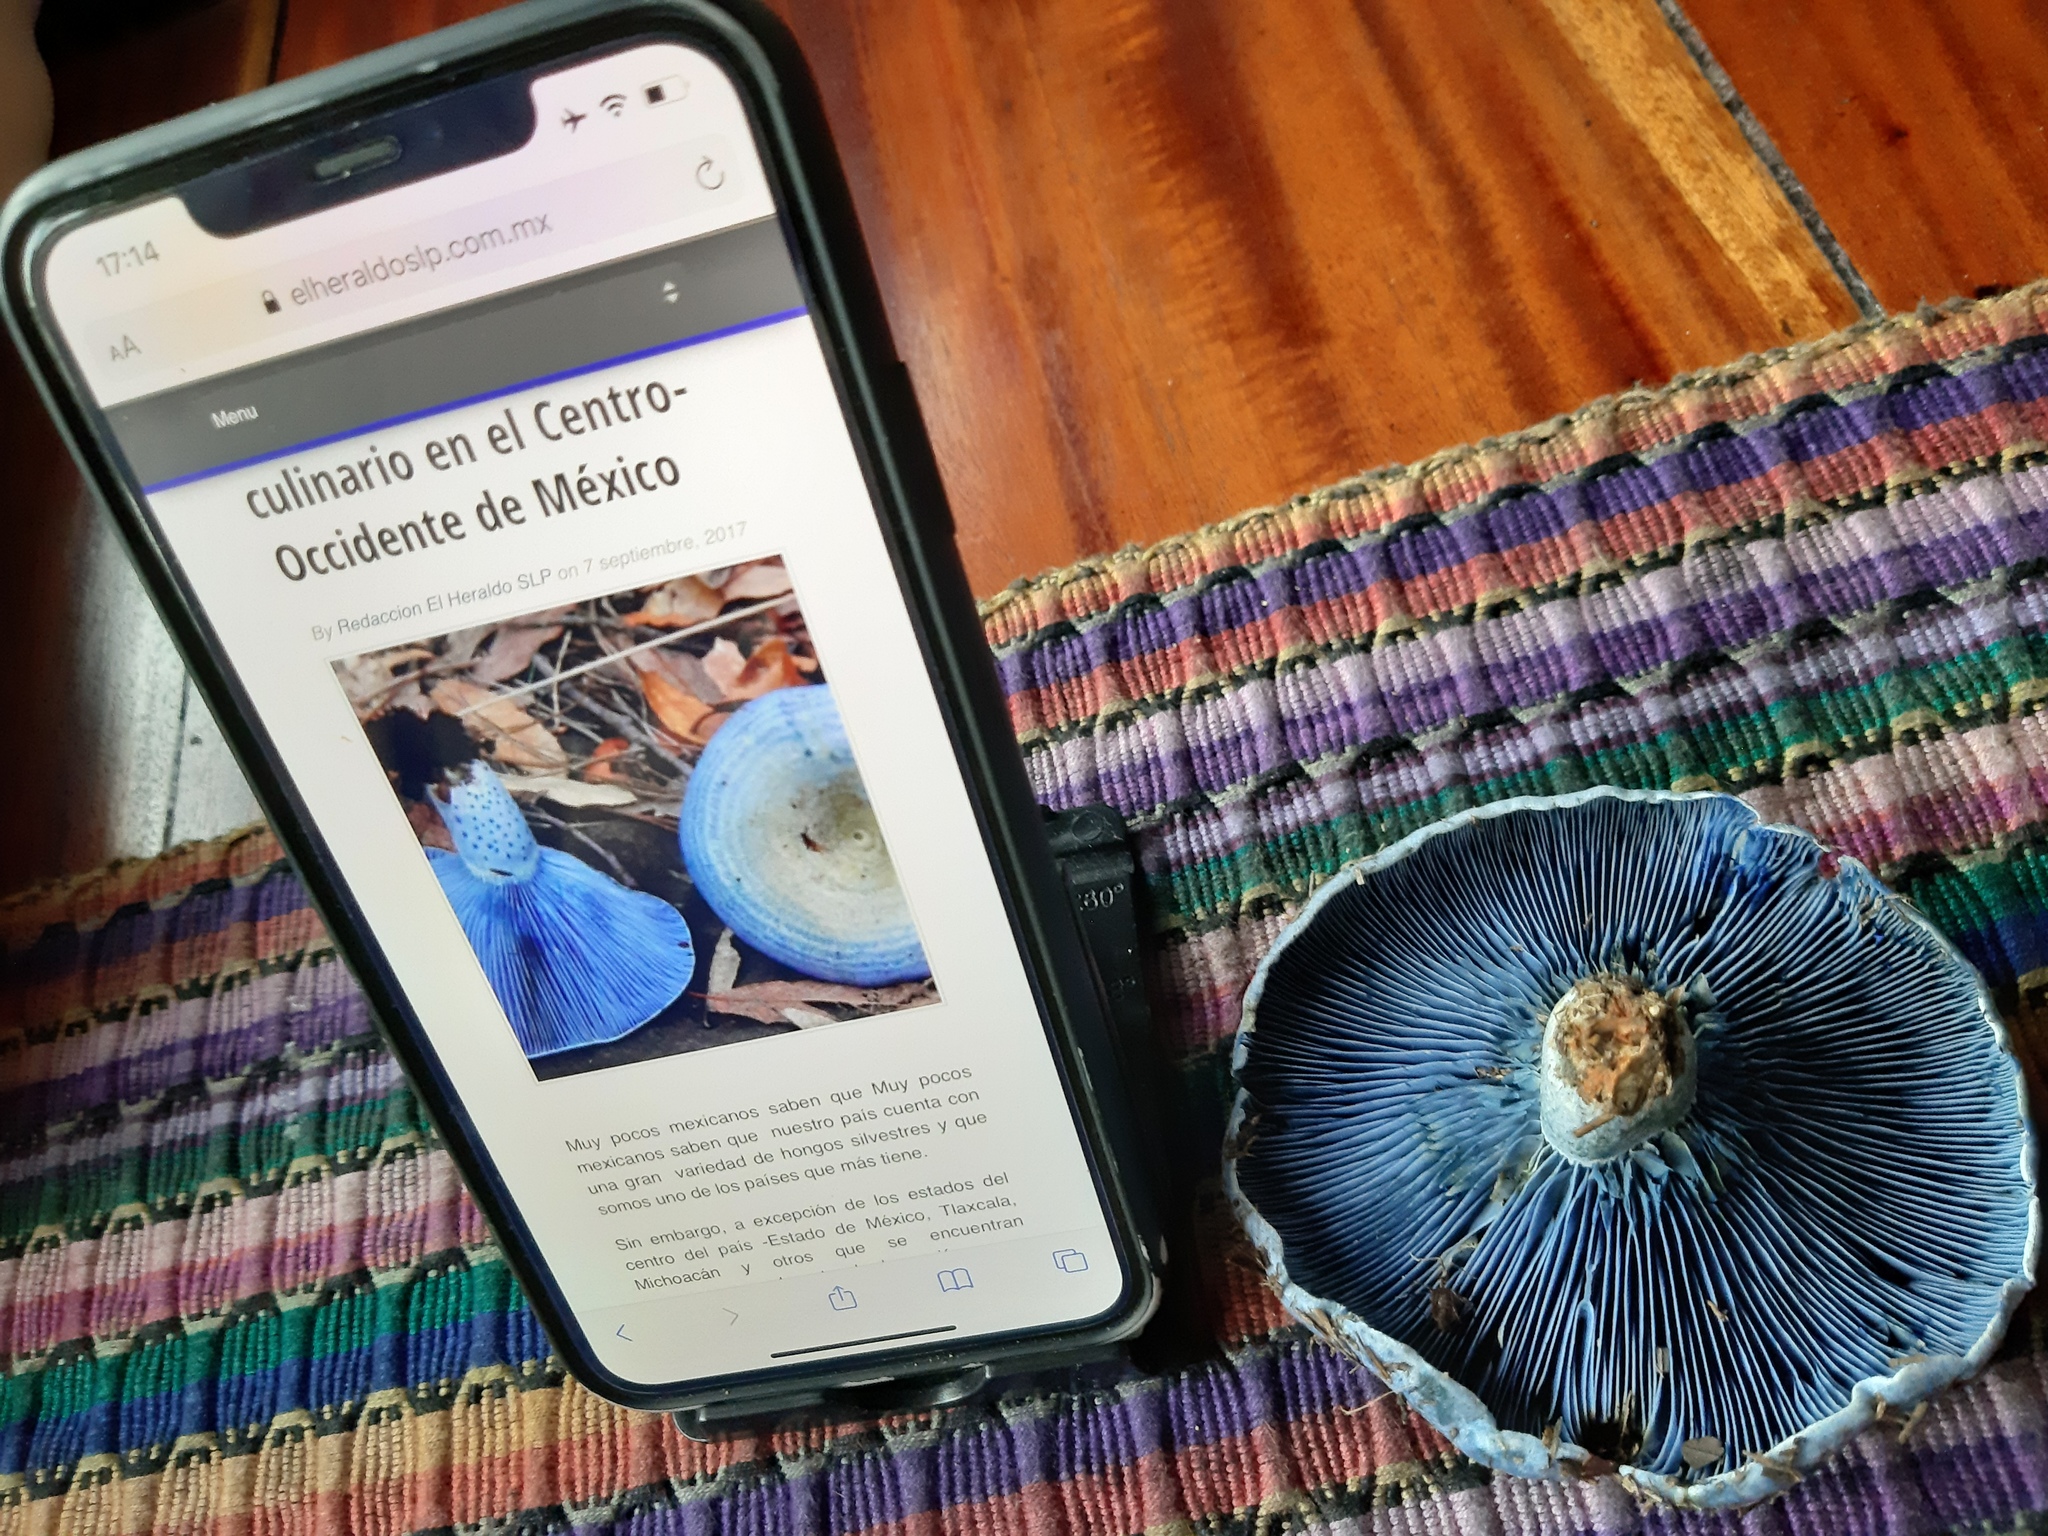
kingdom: Fungi
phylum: Basidiomycota
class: Agaricomycetes
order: Russulales
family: Russulaceae
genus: Lactarius
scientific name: Lactarius indigo
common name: Indigo milk cap
